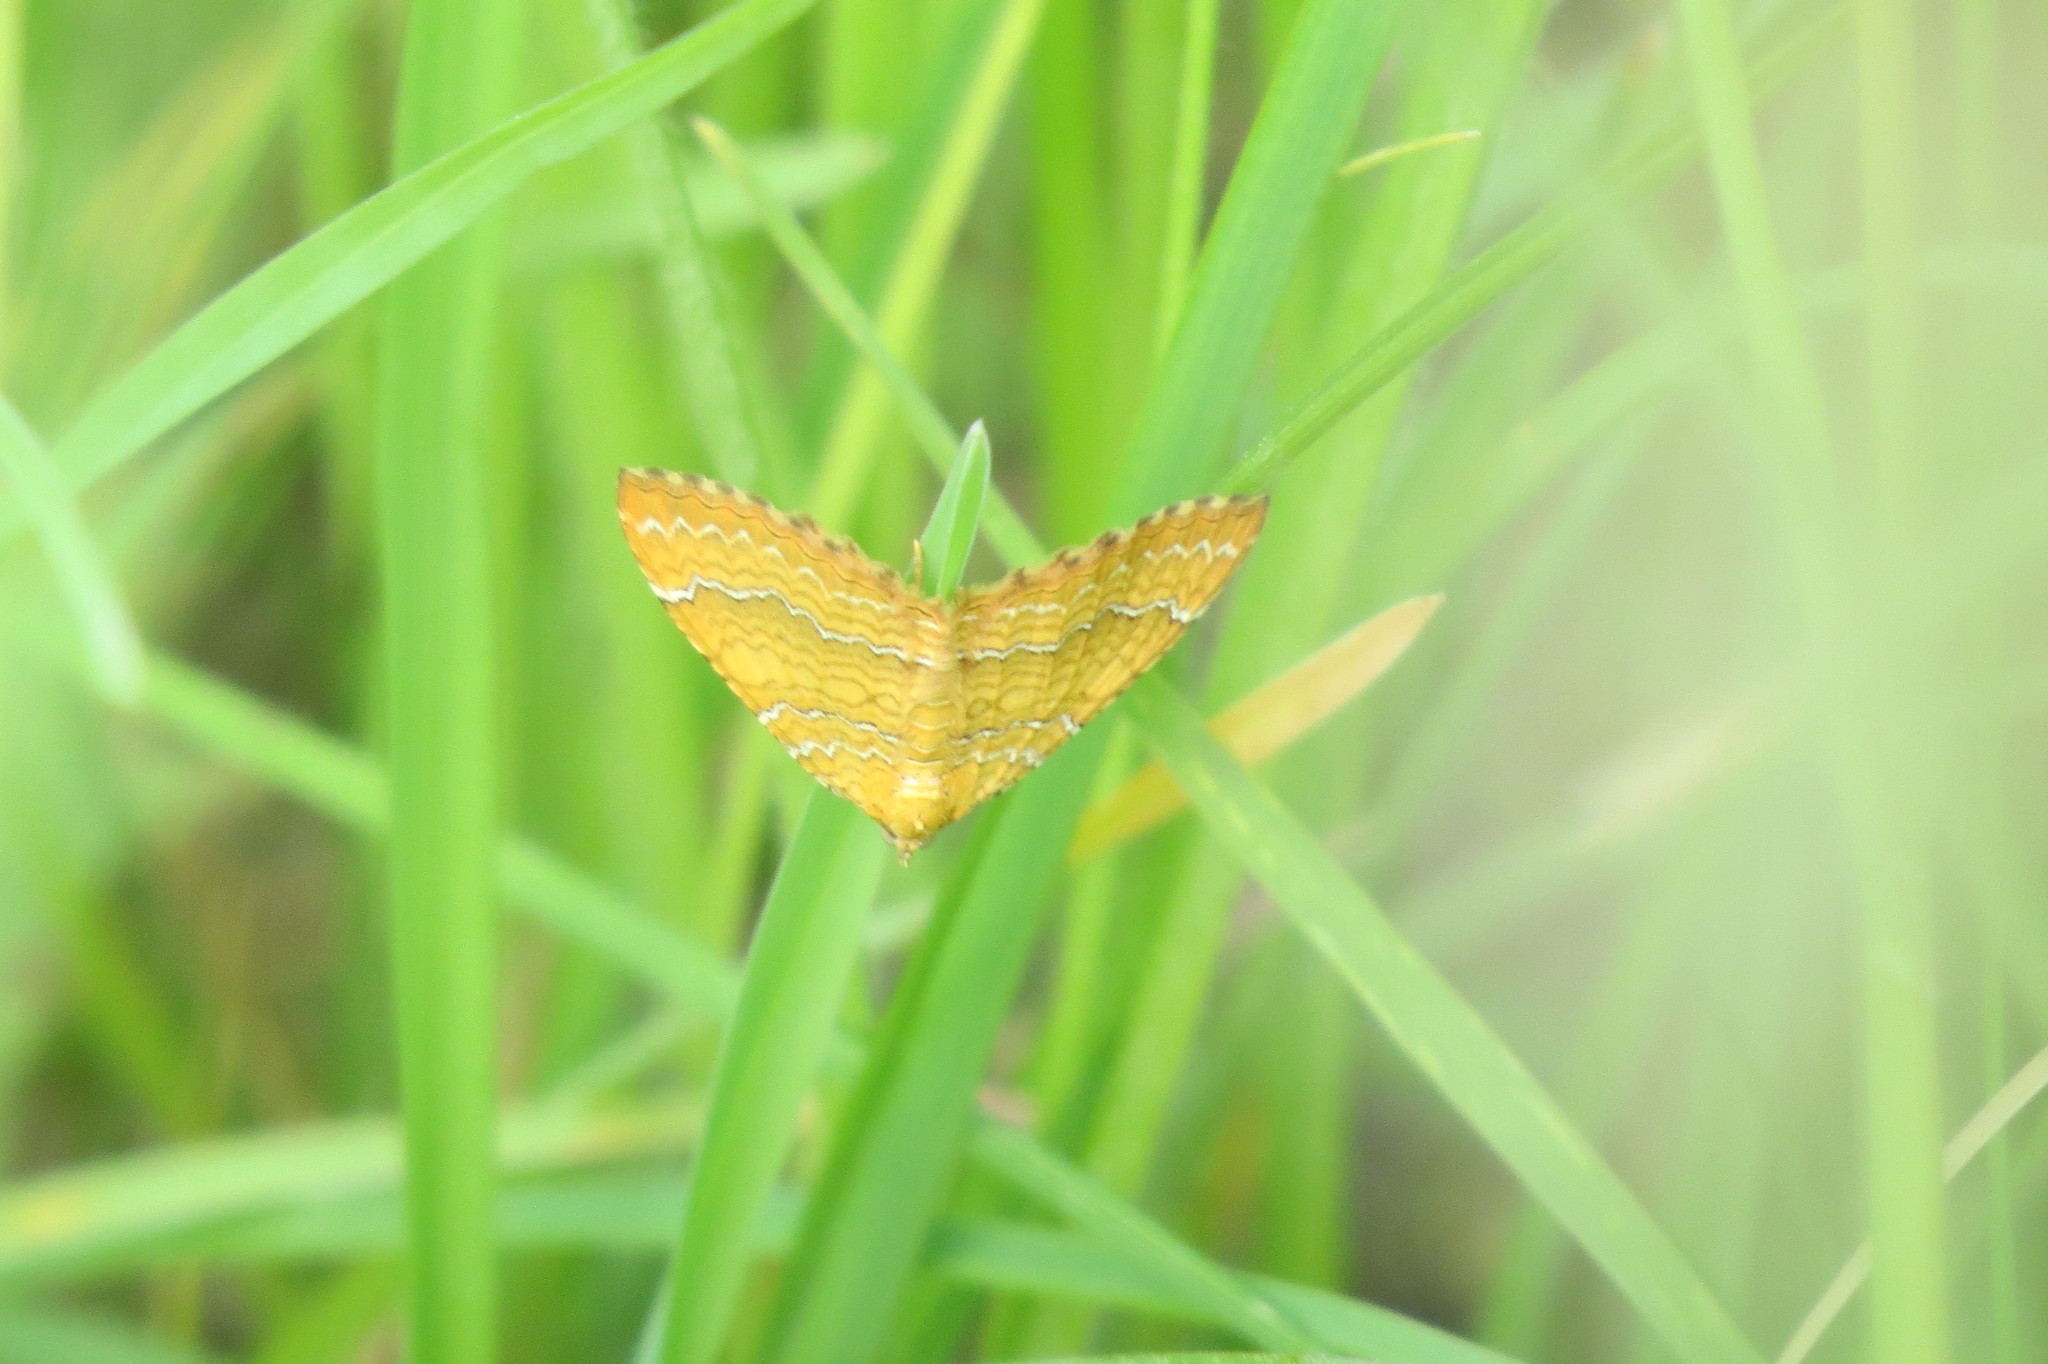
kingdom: Animalia
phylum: Arthropoda
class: Insecta
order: Lepidoptera
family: Geometridae
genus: Camptogramma
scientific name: Camptogramma bilineata
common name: Yellow shell
